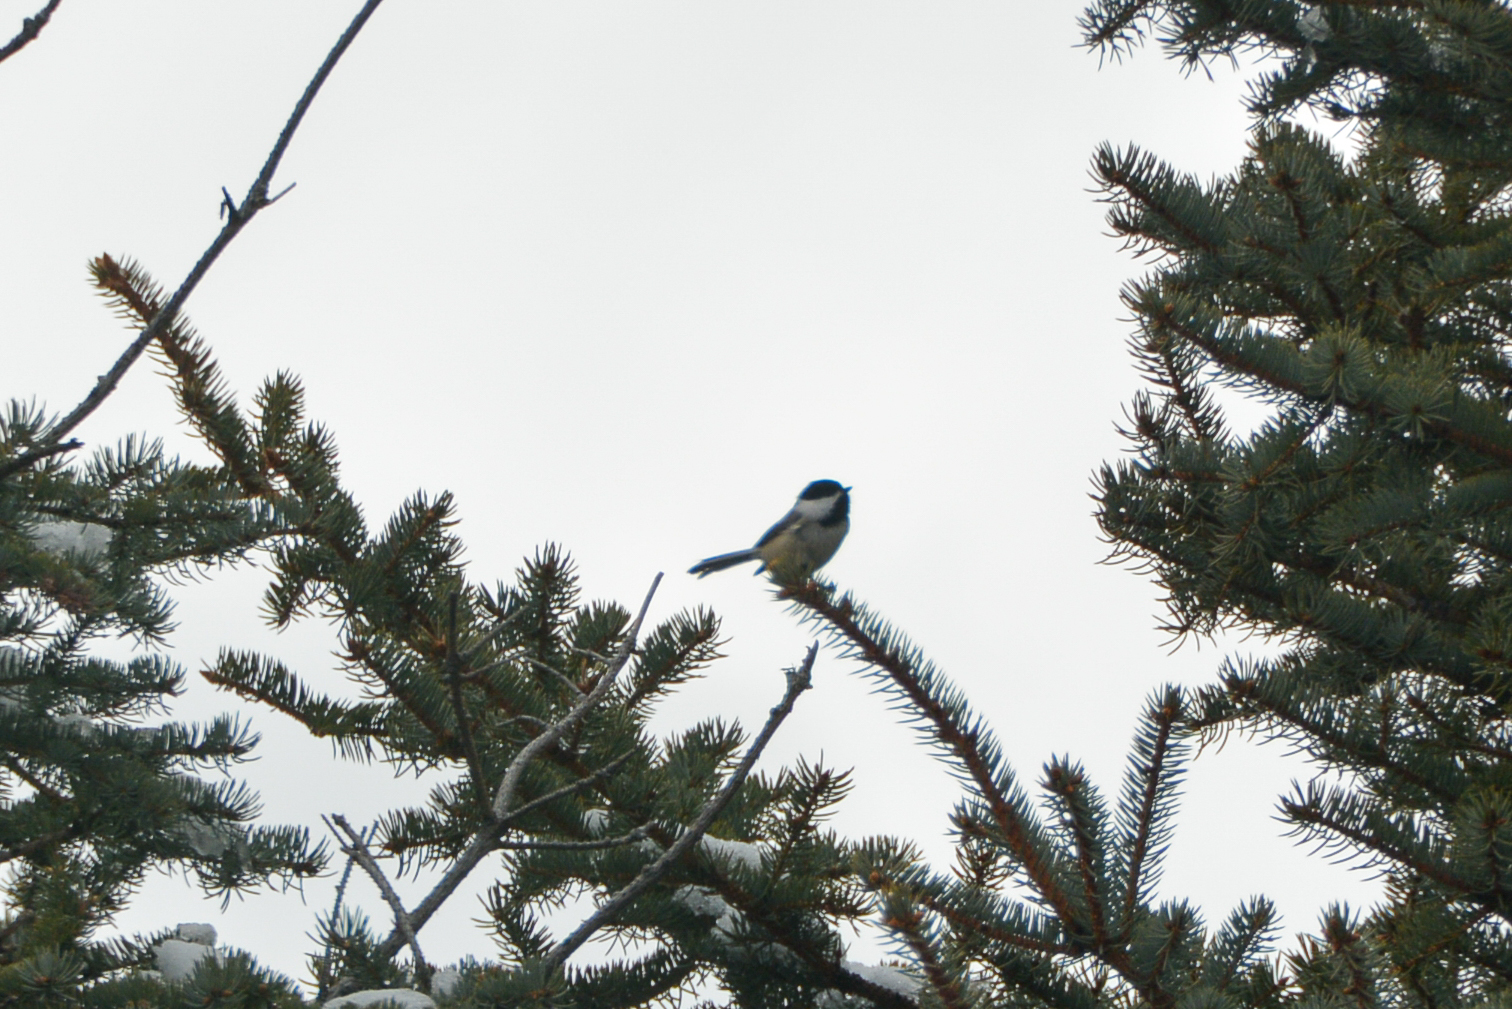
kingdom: Animalia
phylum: Chordata
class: Aves
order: Passeriformes
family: Paridae
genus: Poecile
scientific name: Poecile atricapillus
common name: Black-capped chickadee
